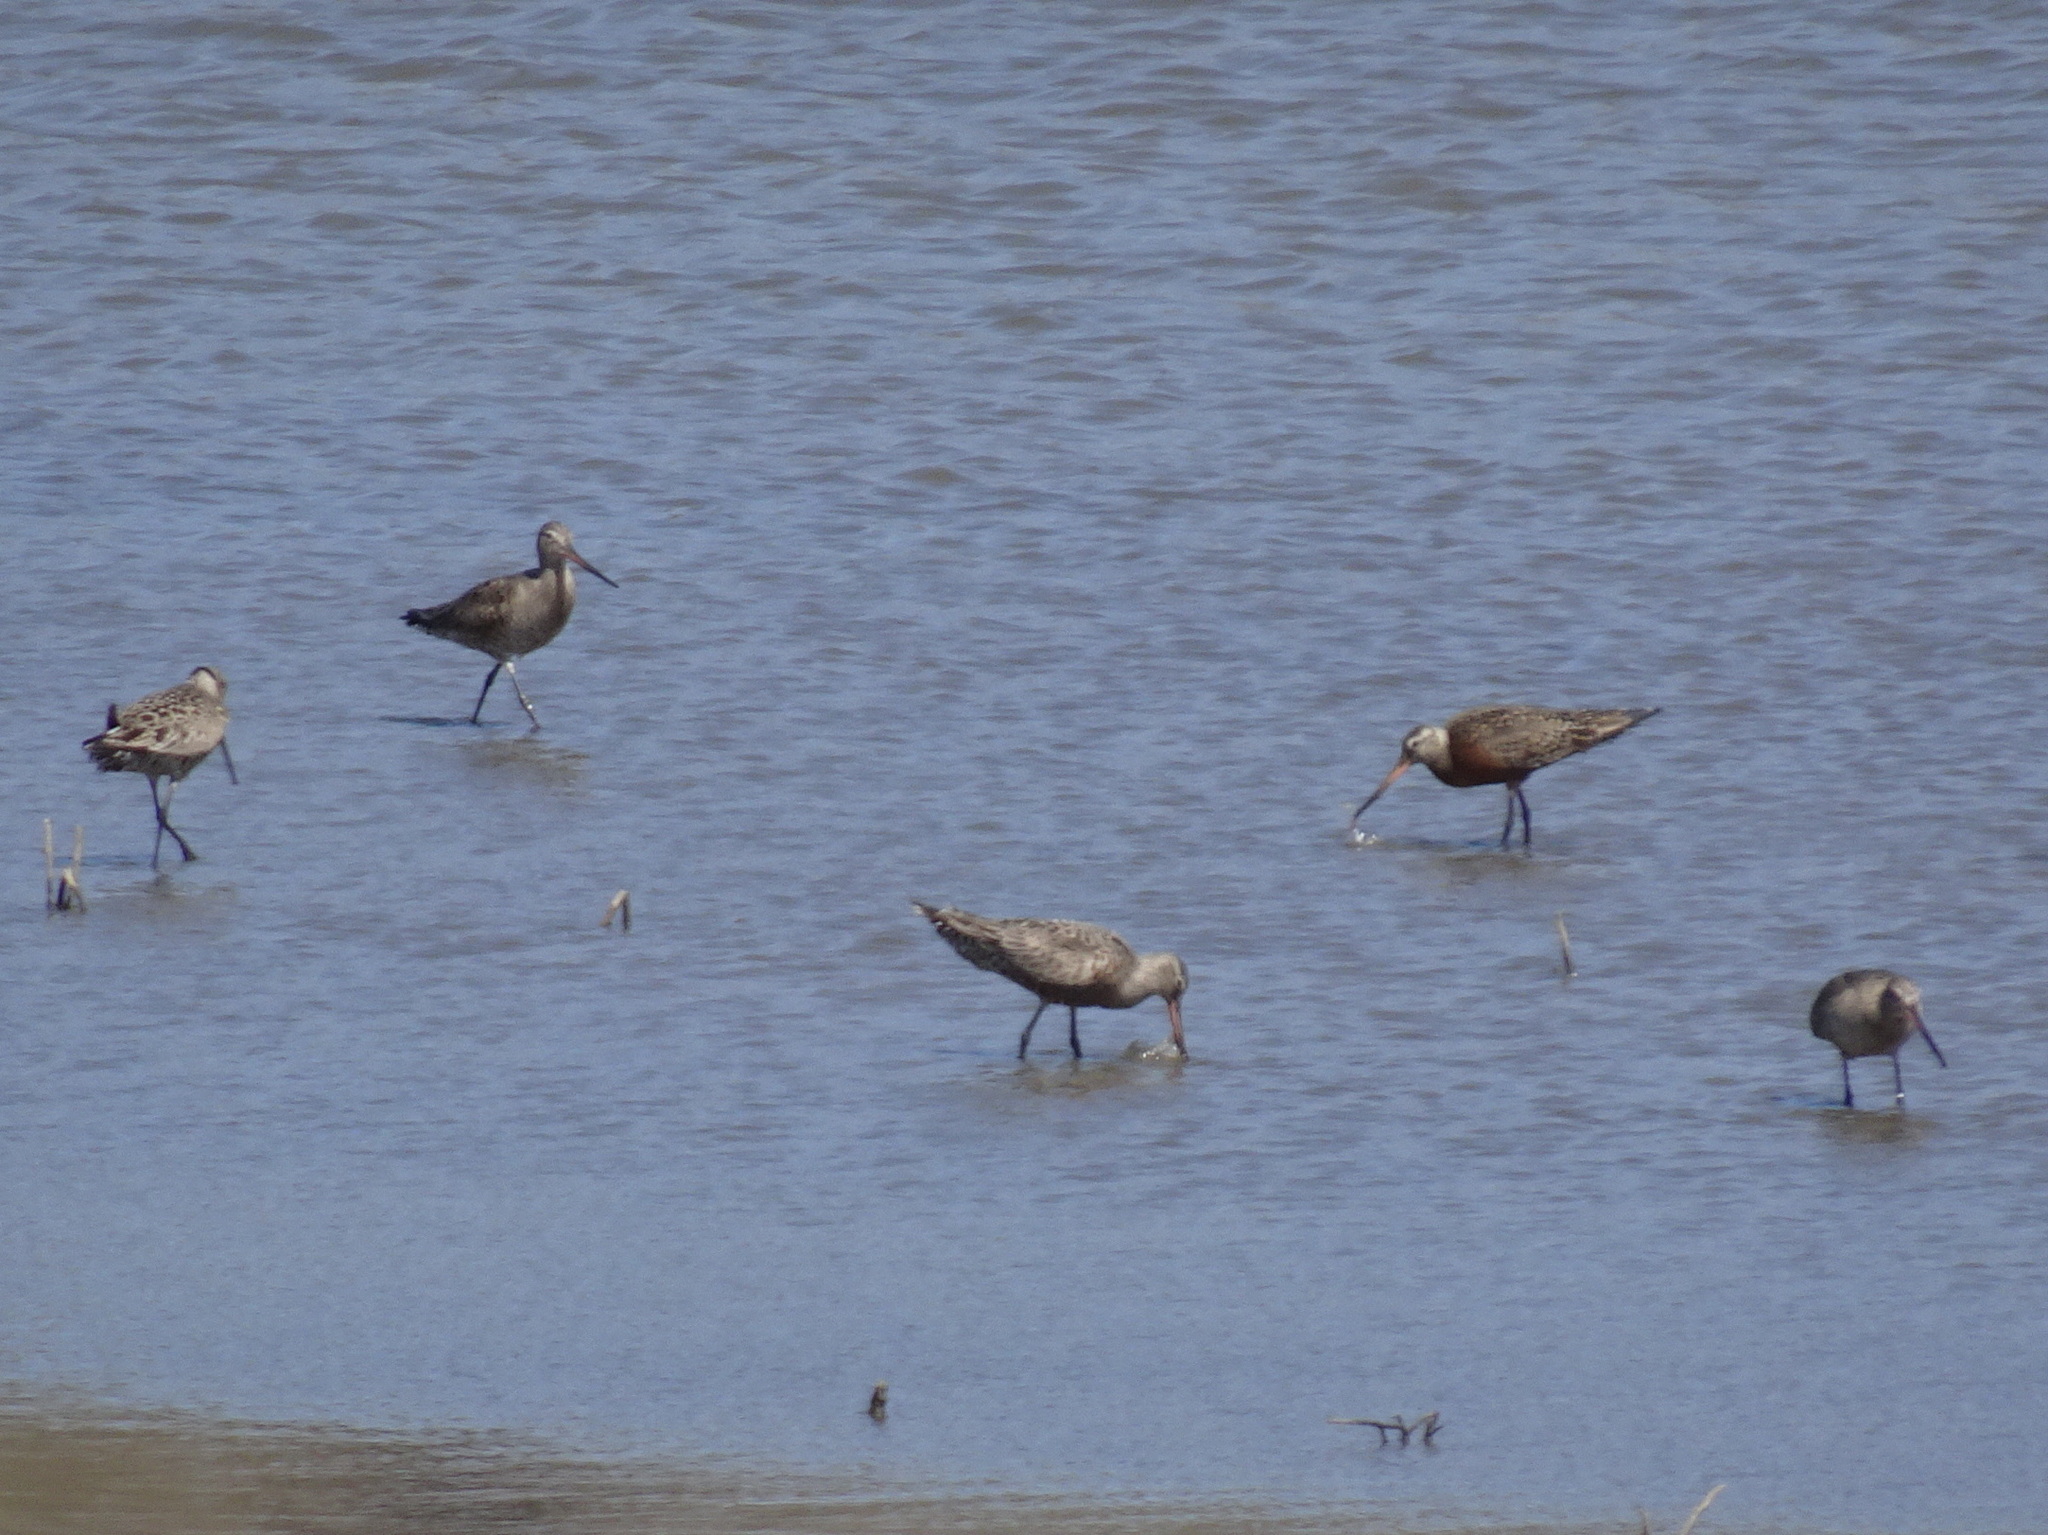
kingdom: Animalia
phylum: Chordata
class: Aves
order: Charadriiformes
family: Scolopacidae
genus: Limosa
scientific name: Limosa haemastica
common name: Hudsonian godwit
